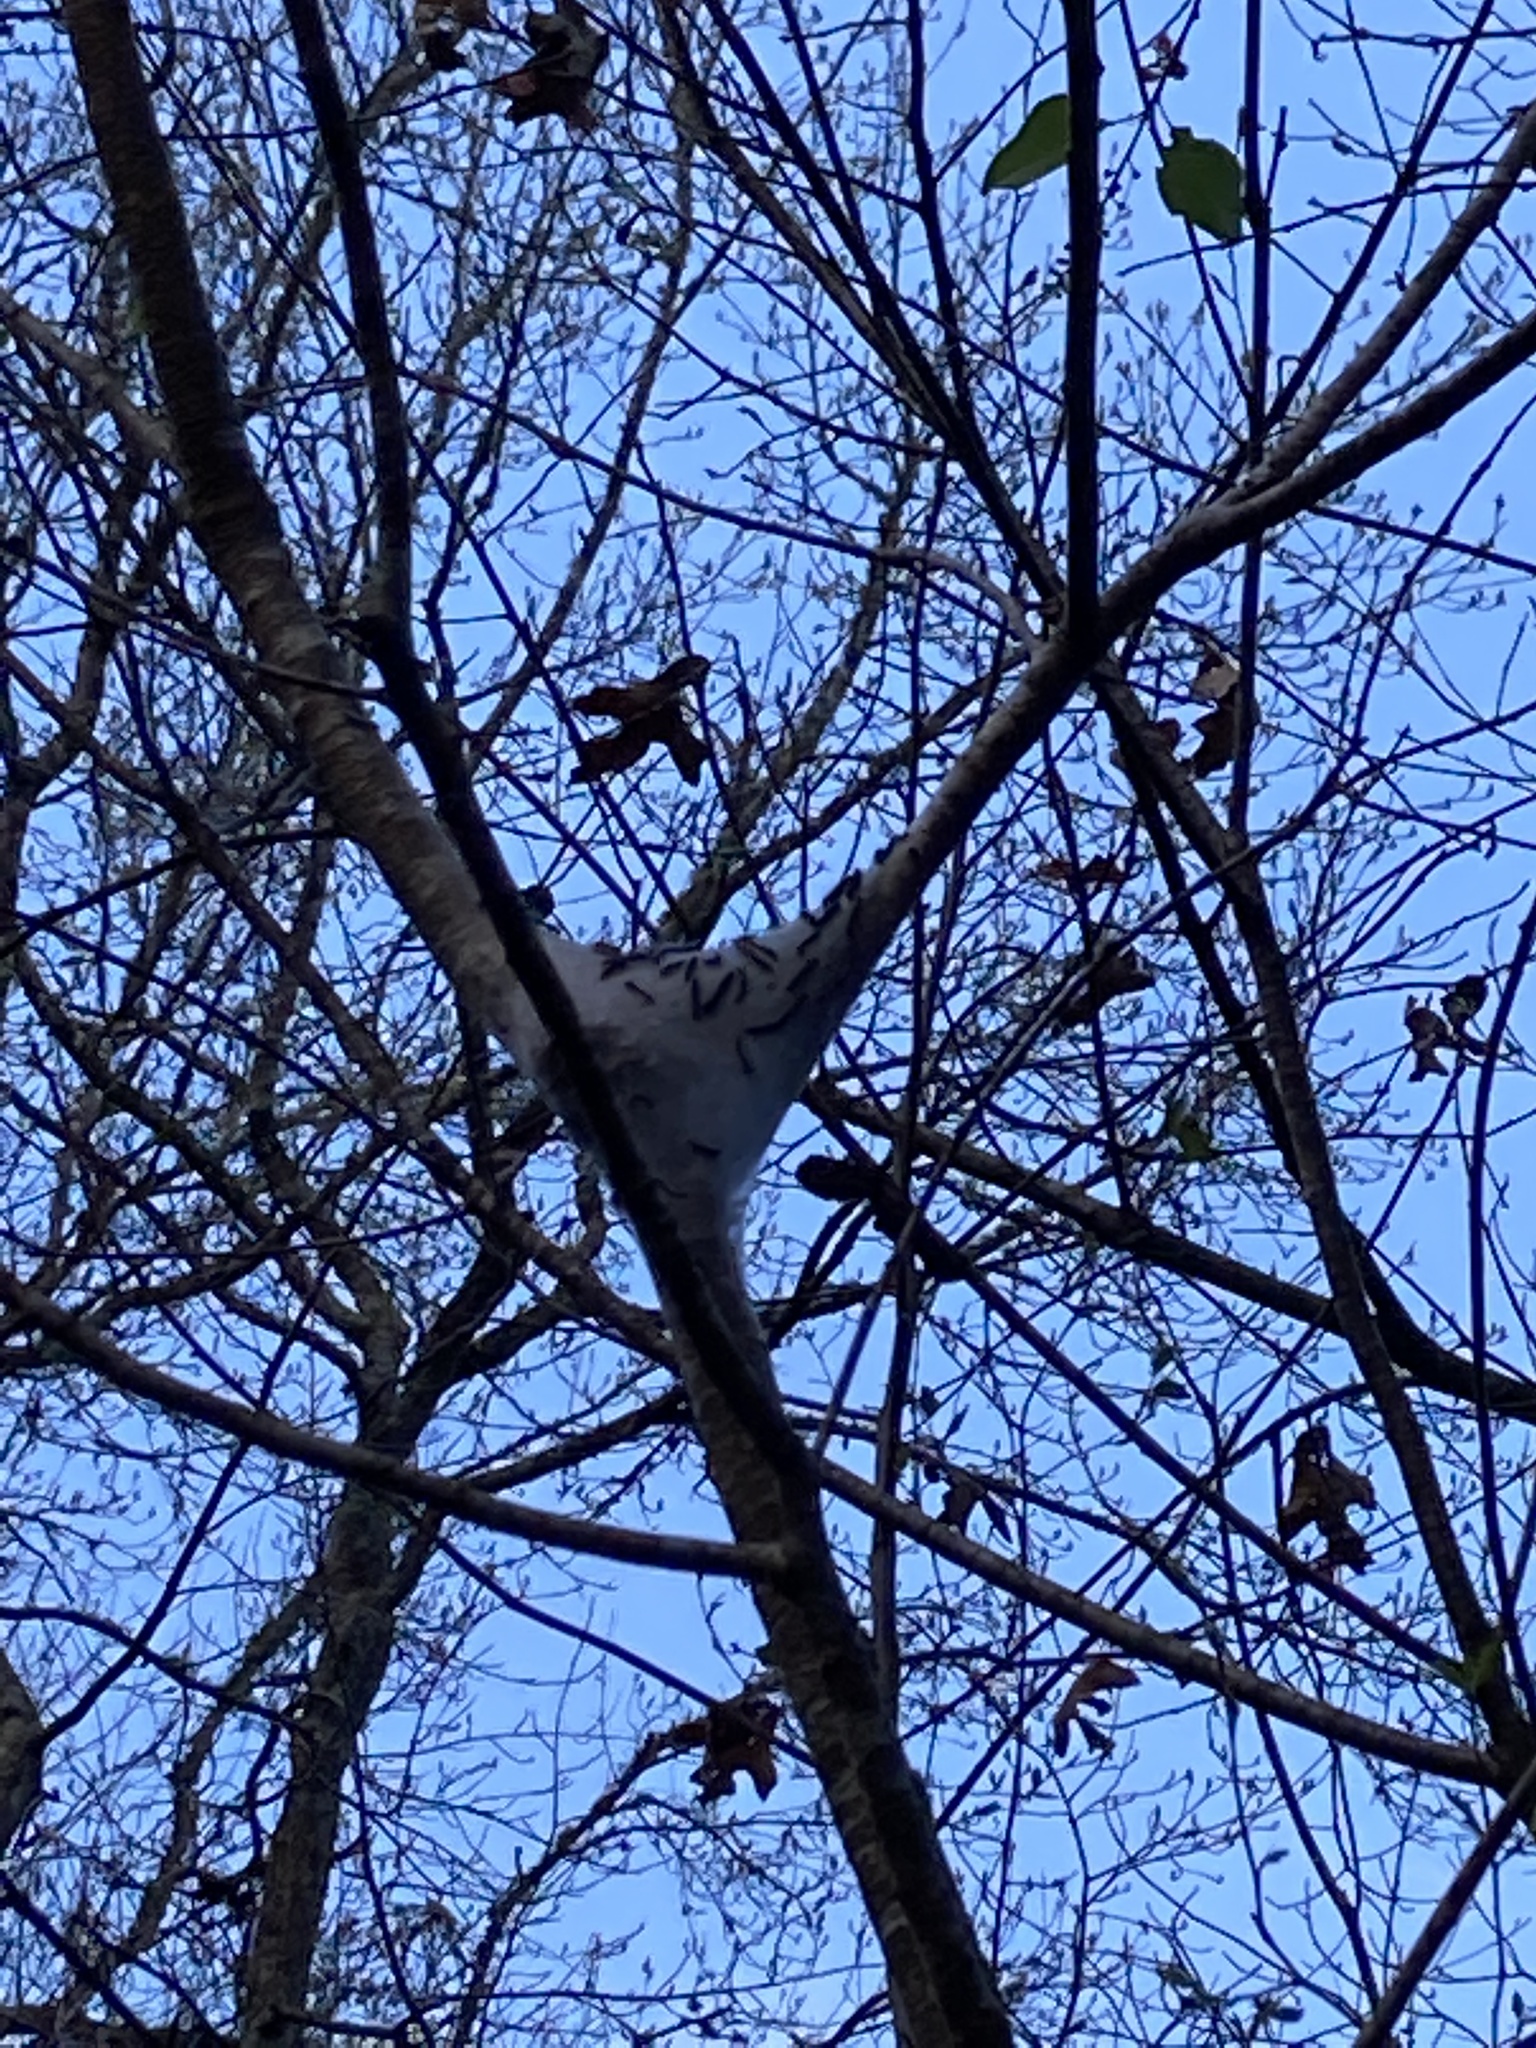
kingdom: Animalia
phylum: Arthropoda
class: Insecta
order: Lepidoptera
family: Lasiocampidae
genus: Malacosoma
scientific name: Malacosoma americana
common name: Eastern tent caterpillar moth
